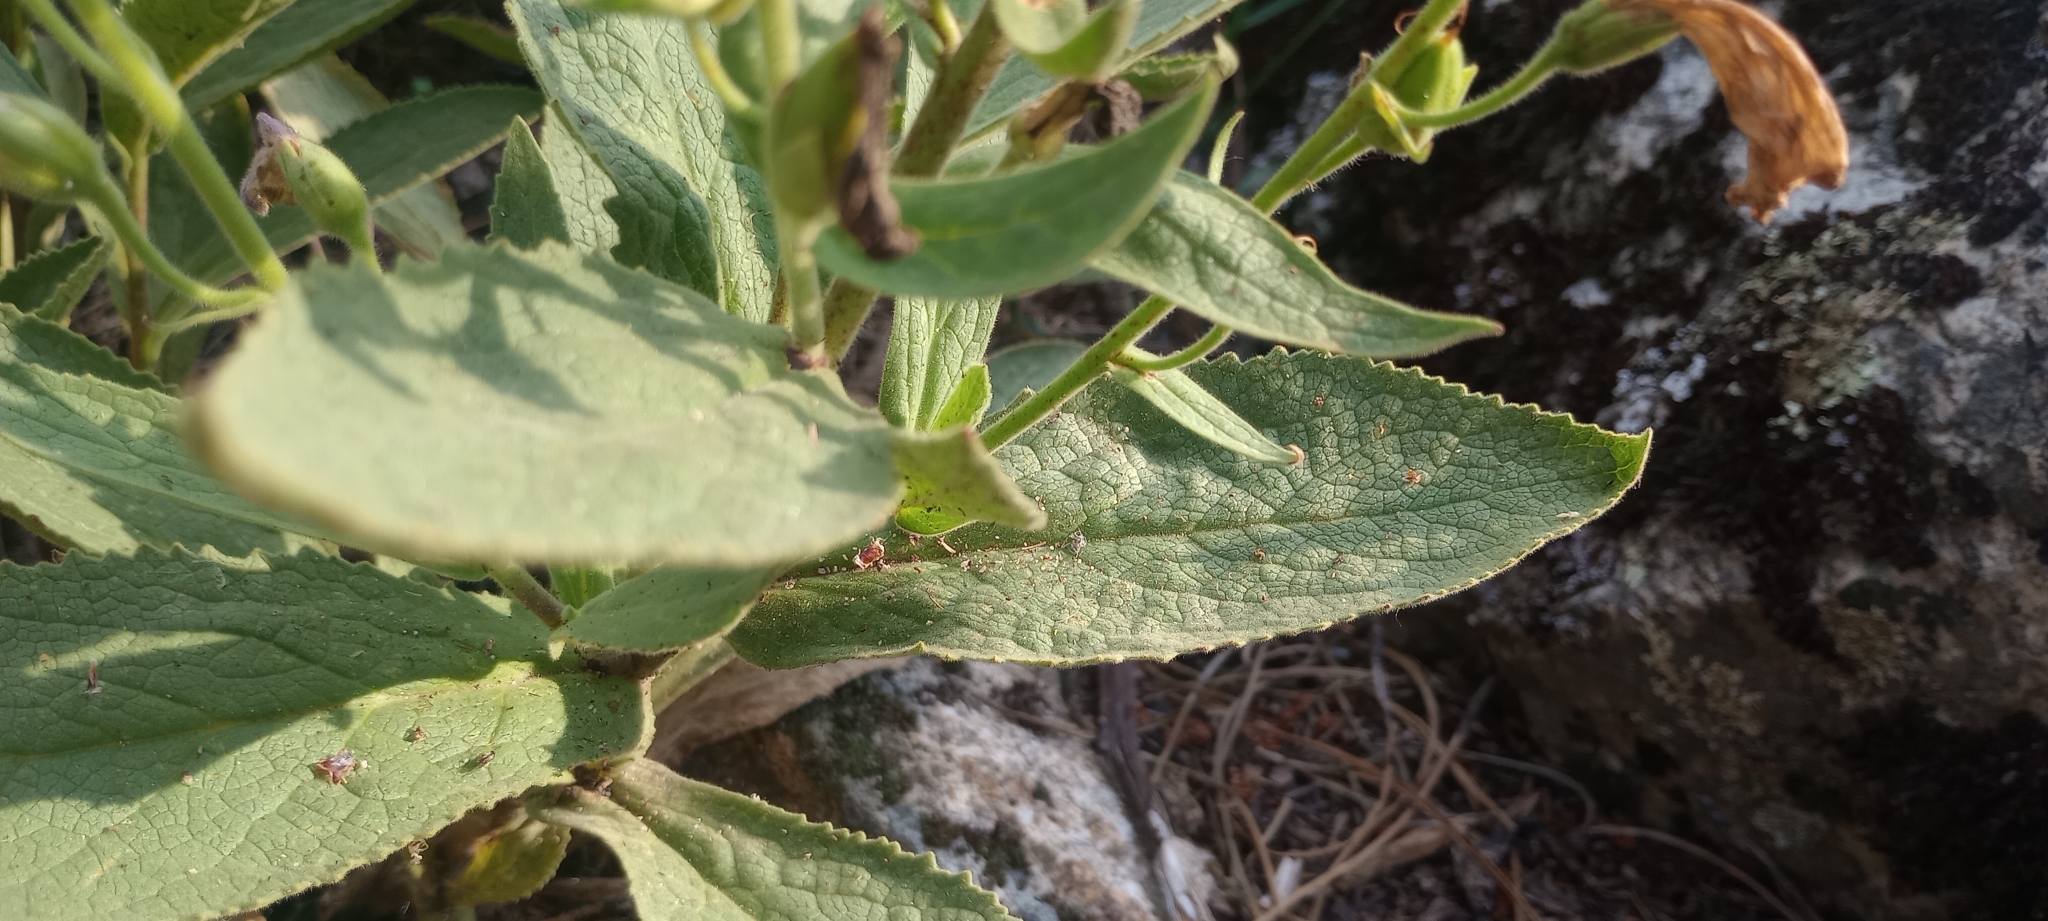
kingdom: Plantae
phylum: Tracheophyta
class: Magnoliopsida
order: Lamiales
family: Plantaginaceae
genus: Digitalis
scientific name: Digitalis thapsi
